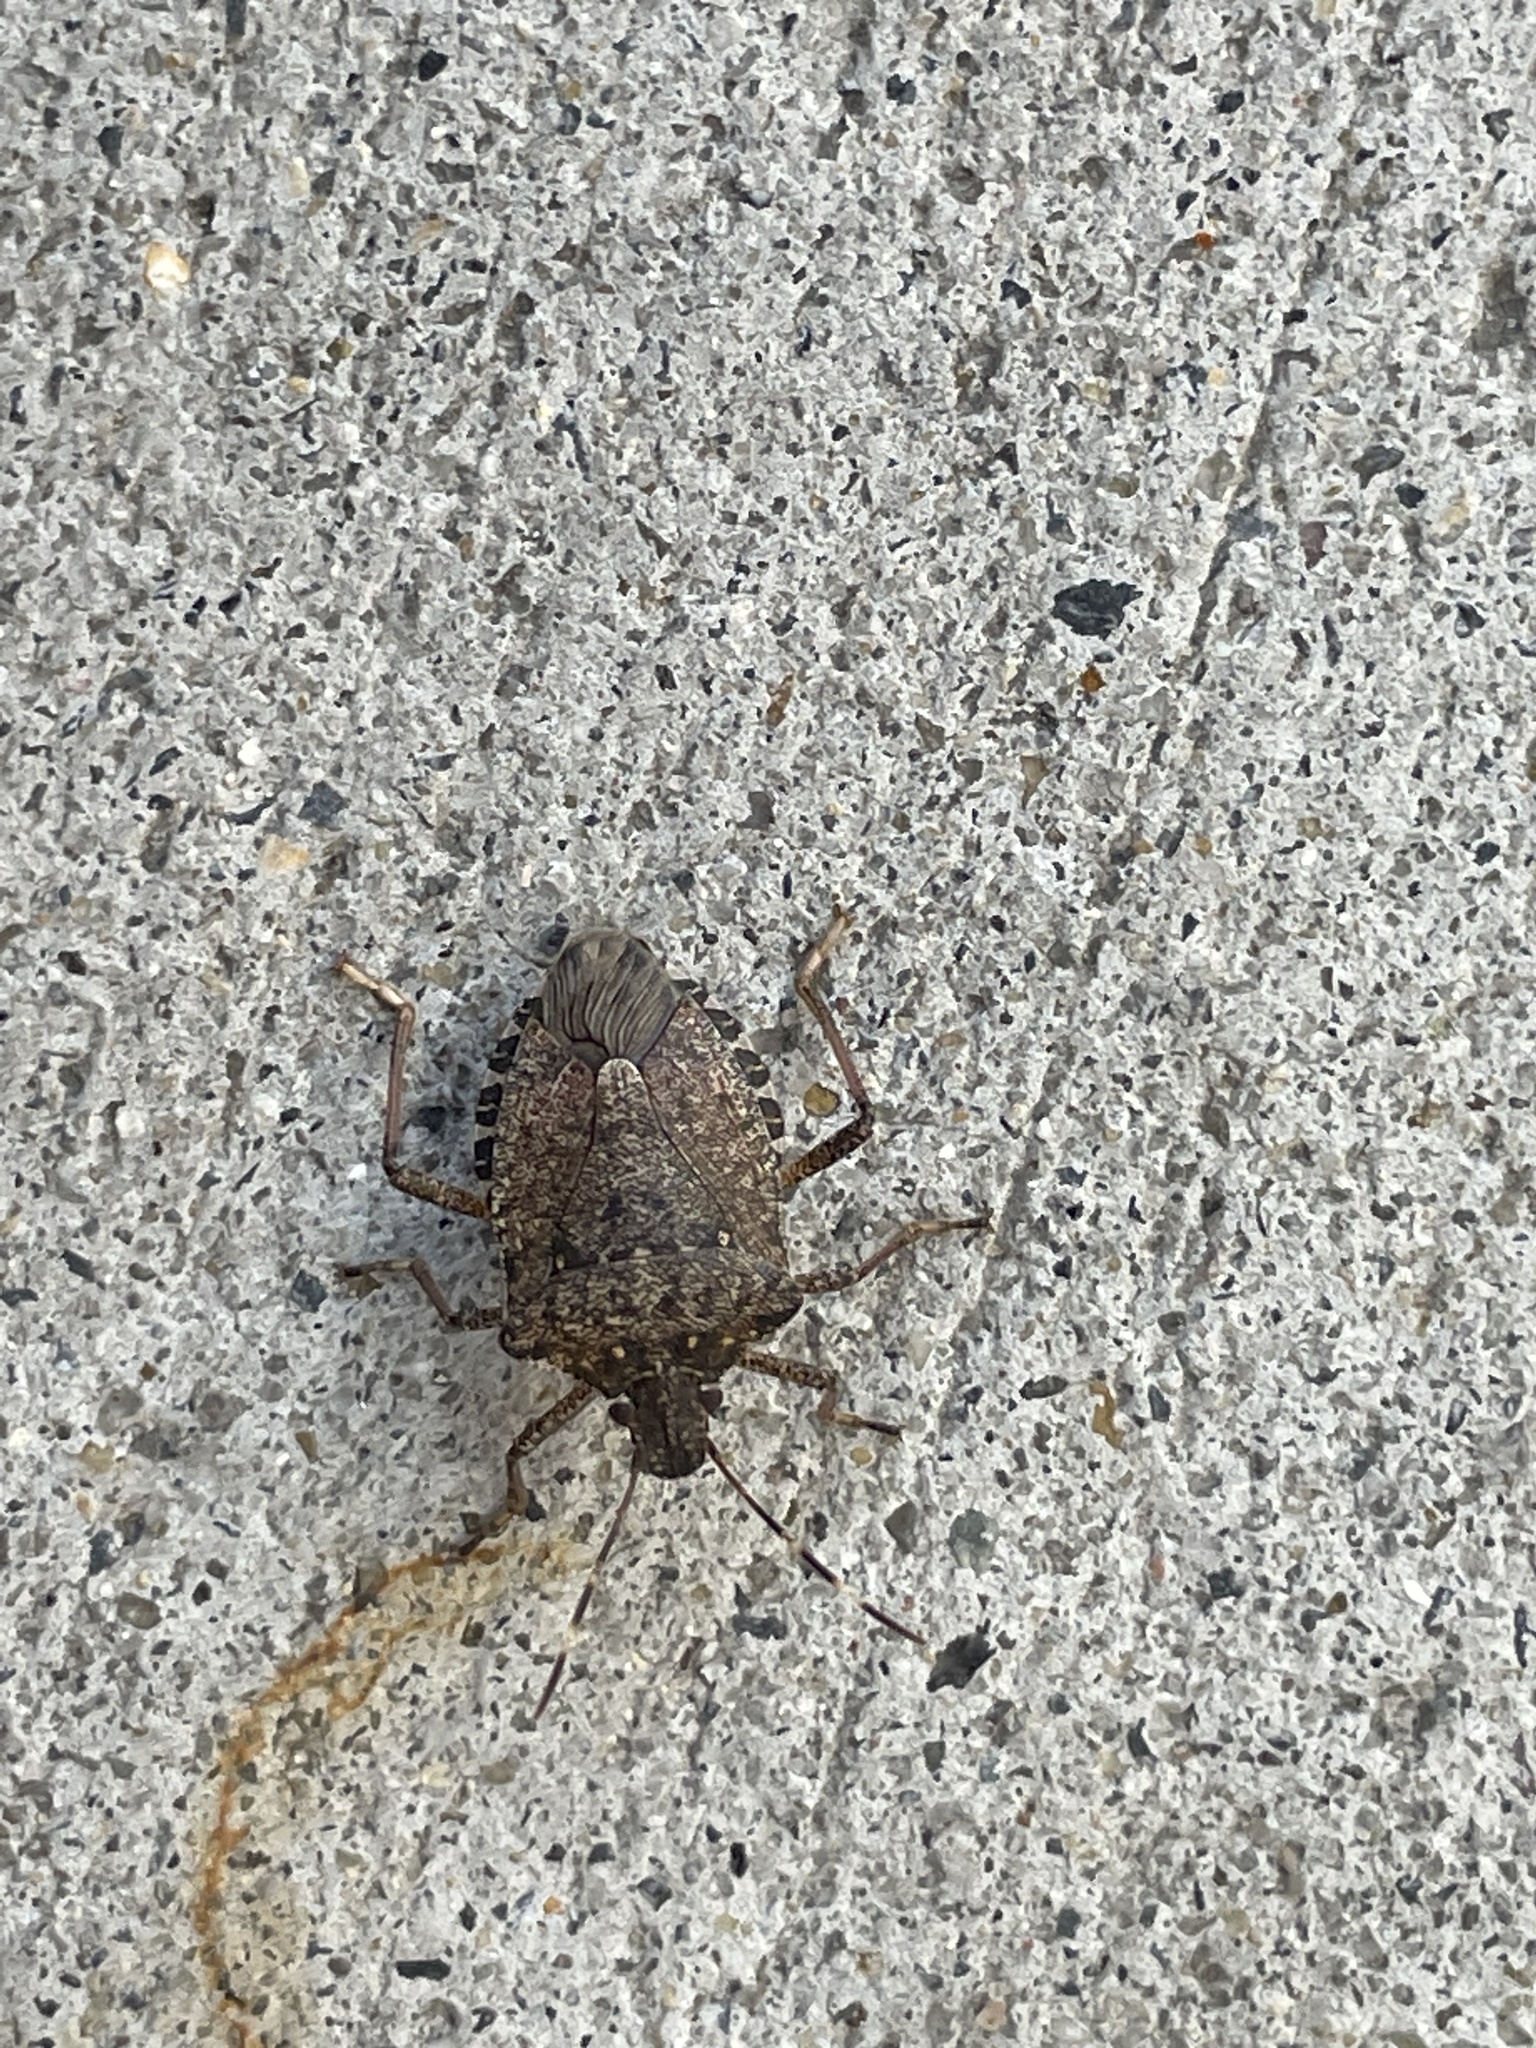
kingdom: Animalia
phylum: Arthropoda
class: Insecta
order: Hemiptera
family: Pentatomidae
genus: Halyomorpha
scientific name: Halyomorpha halys
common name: Brown marmorated stink bug
